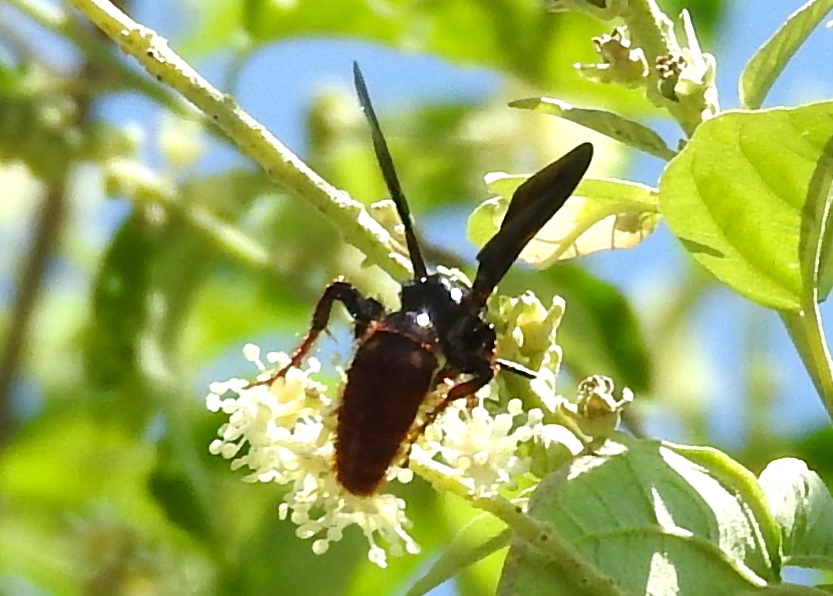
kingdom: Animalia
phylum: Arthropoda
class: Insecta
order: Hymenoptera
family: Scoliidae
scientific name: Scoliidae
